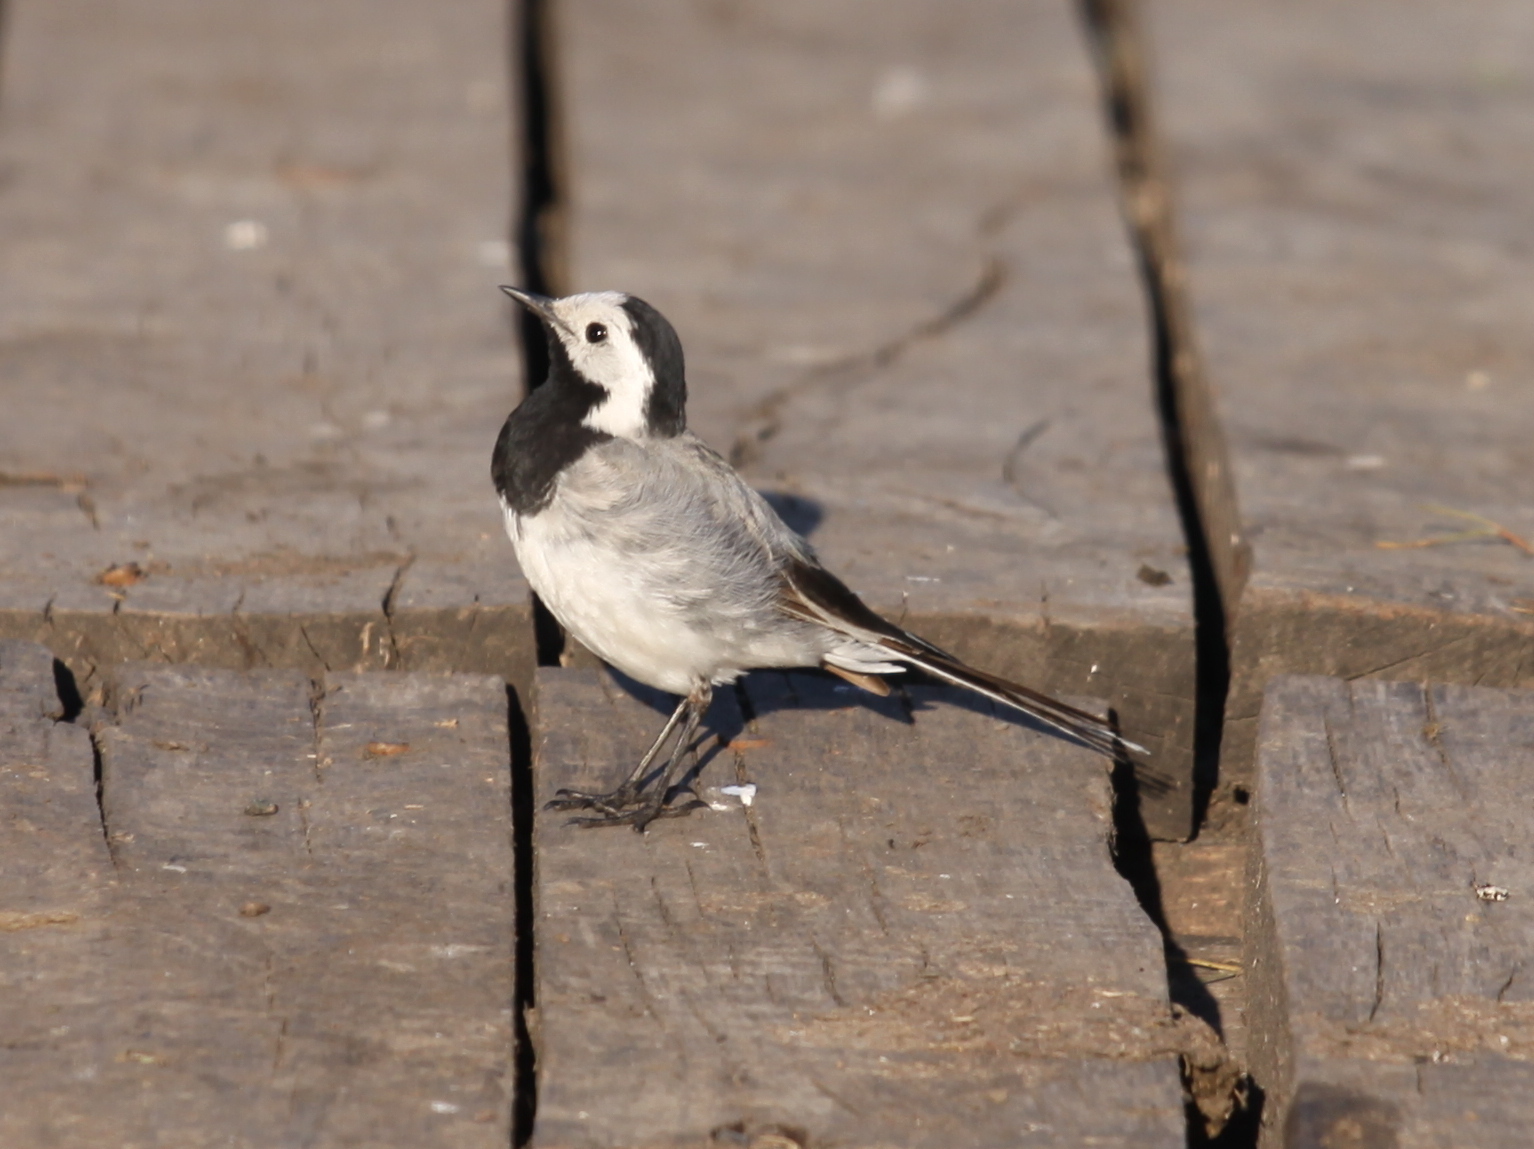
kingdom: Animalia
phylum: Chordata
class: Aves
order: Passeriformes
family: Motacillidae
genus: Motacilla
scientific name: Motacilla alba
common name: White wagtail
